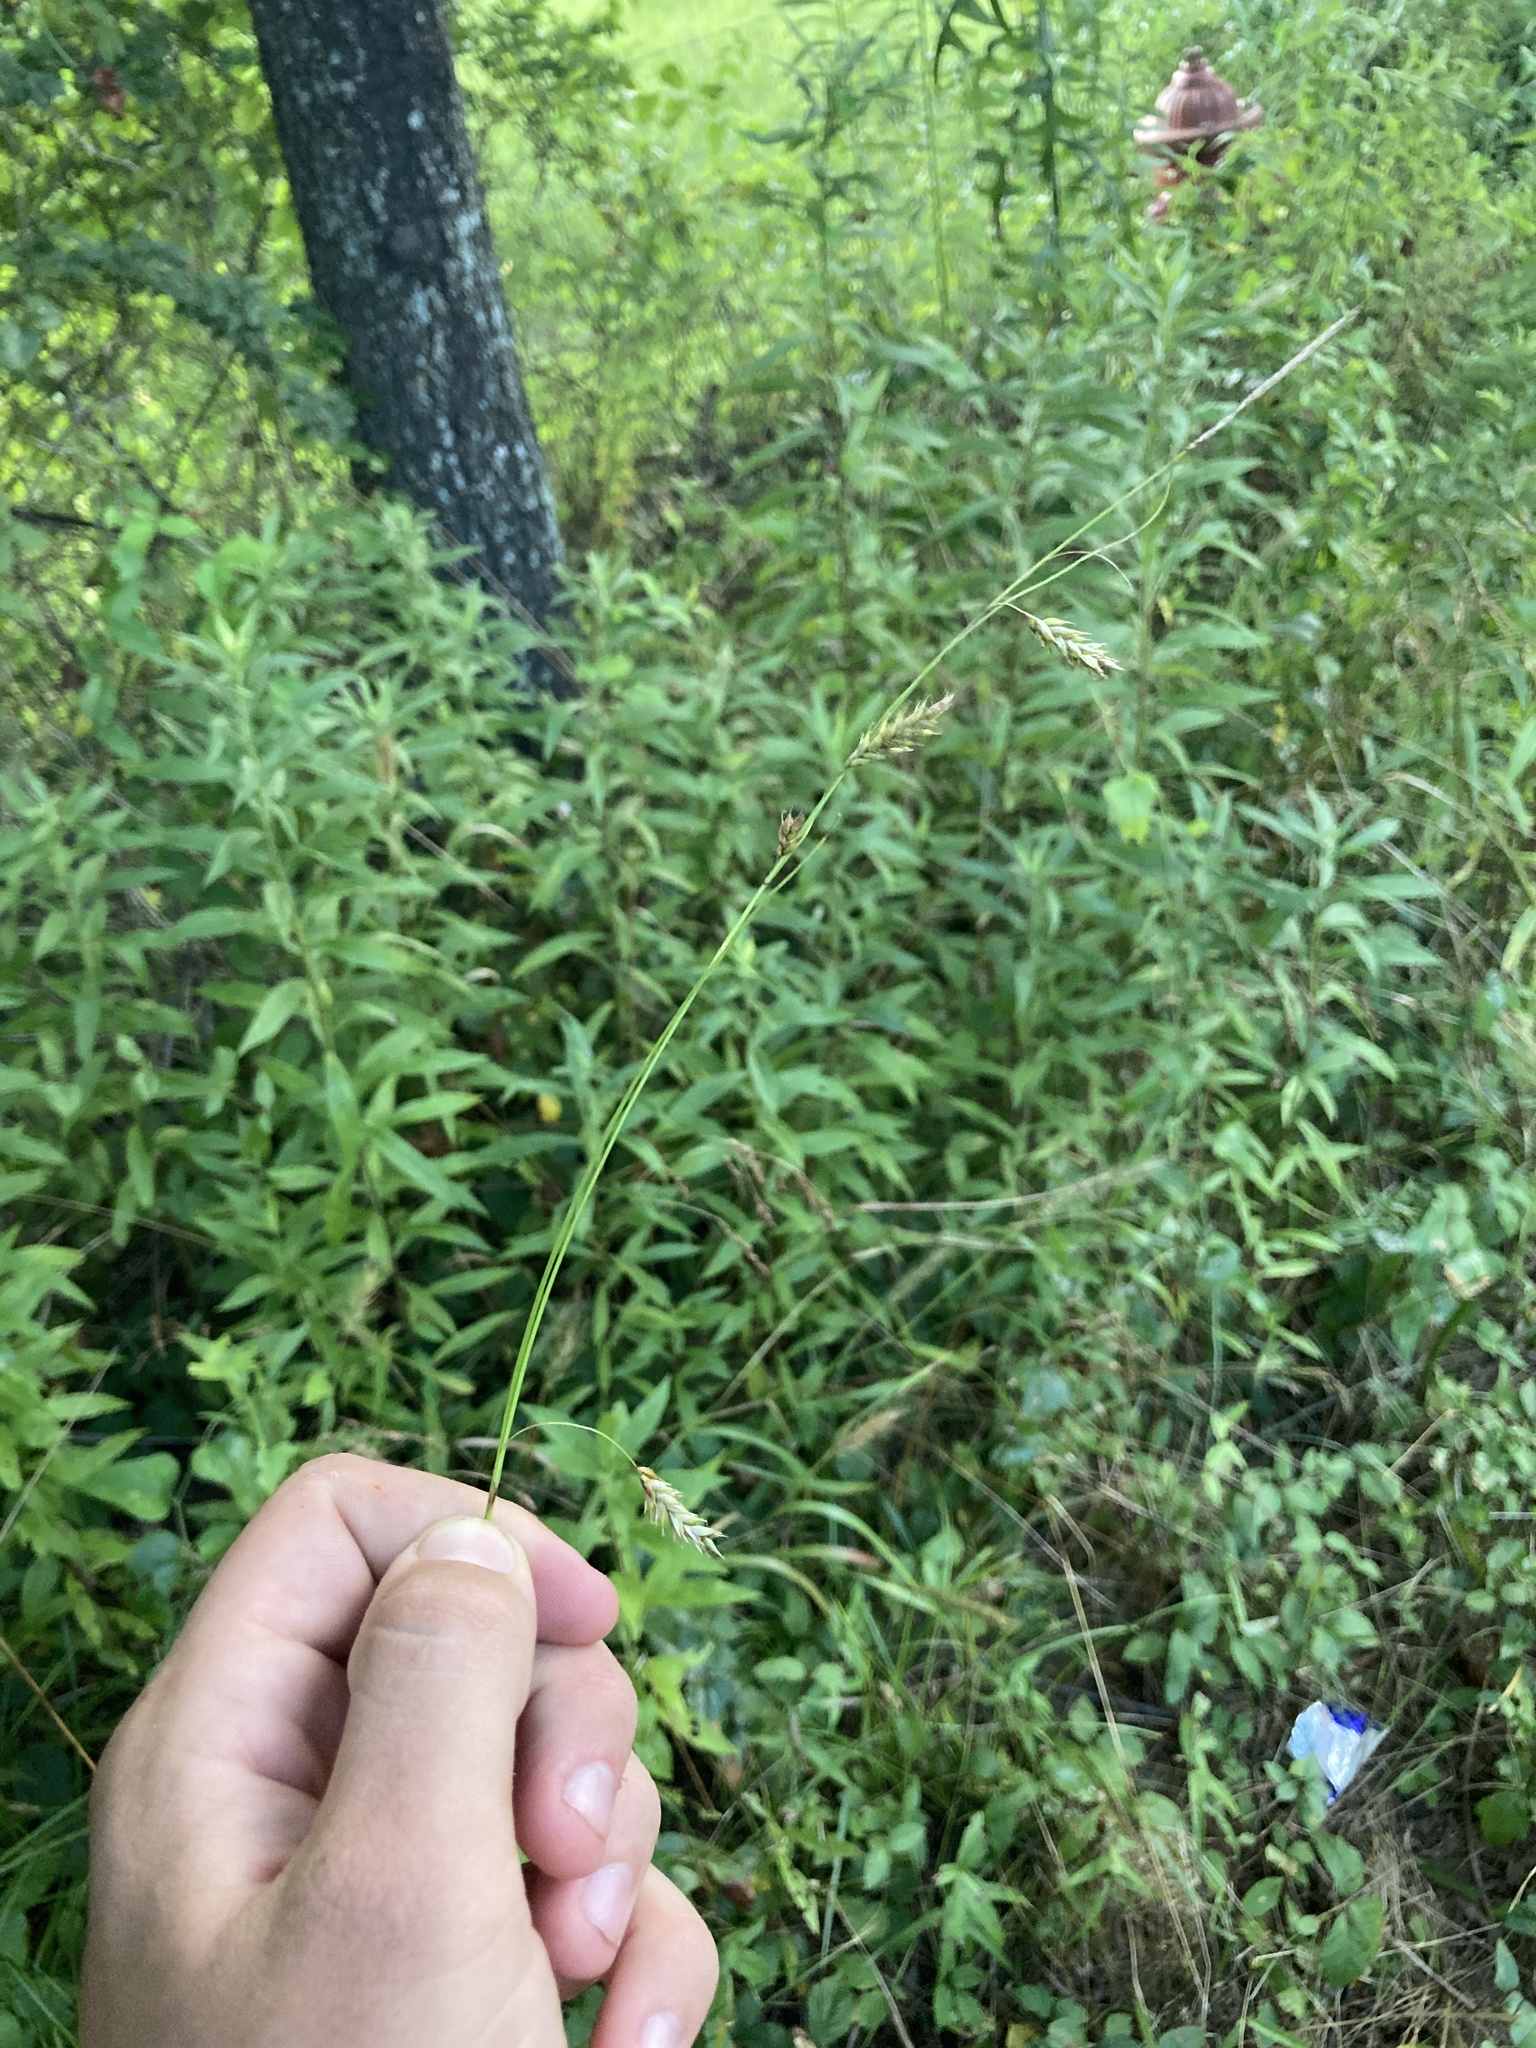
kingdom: Plantae
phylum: Tracheophyta
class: Liliopsida
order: Poales
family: Cyperaceae
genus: Carex
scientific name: Carex cherokeensis
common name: Cherokee sedge
